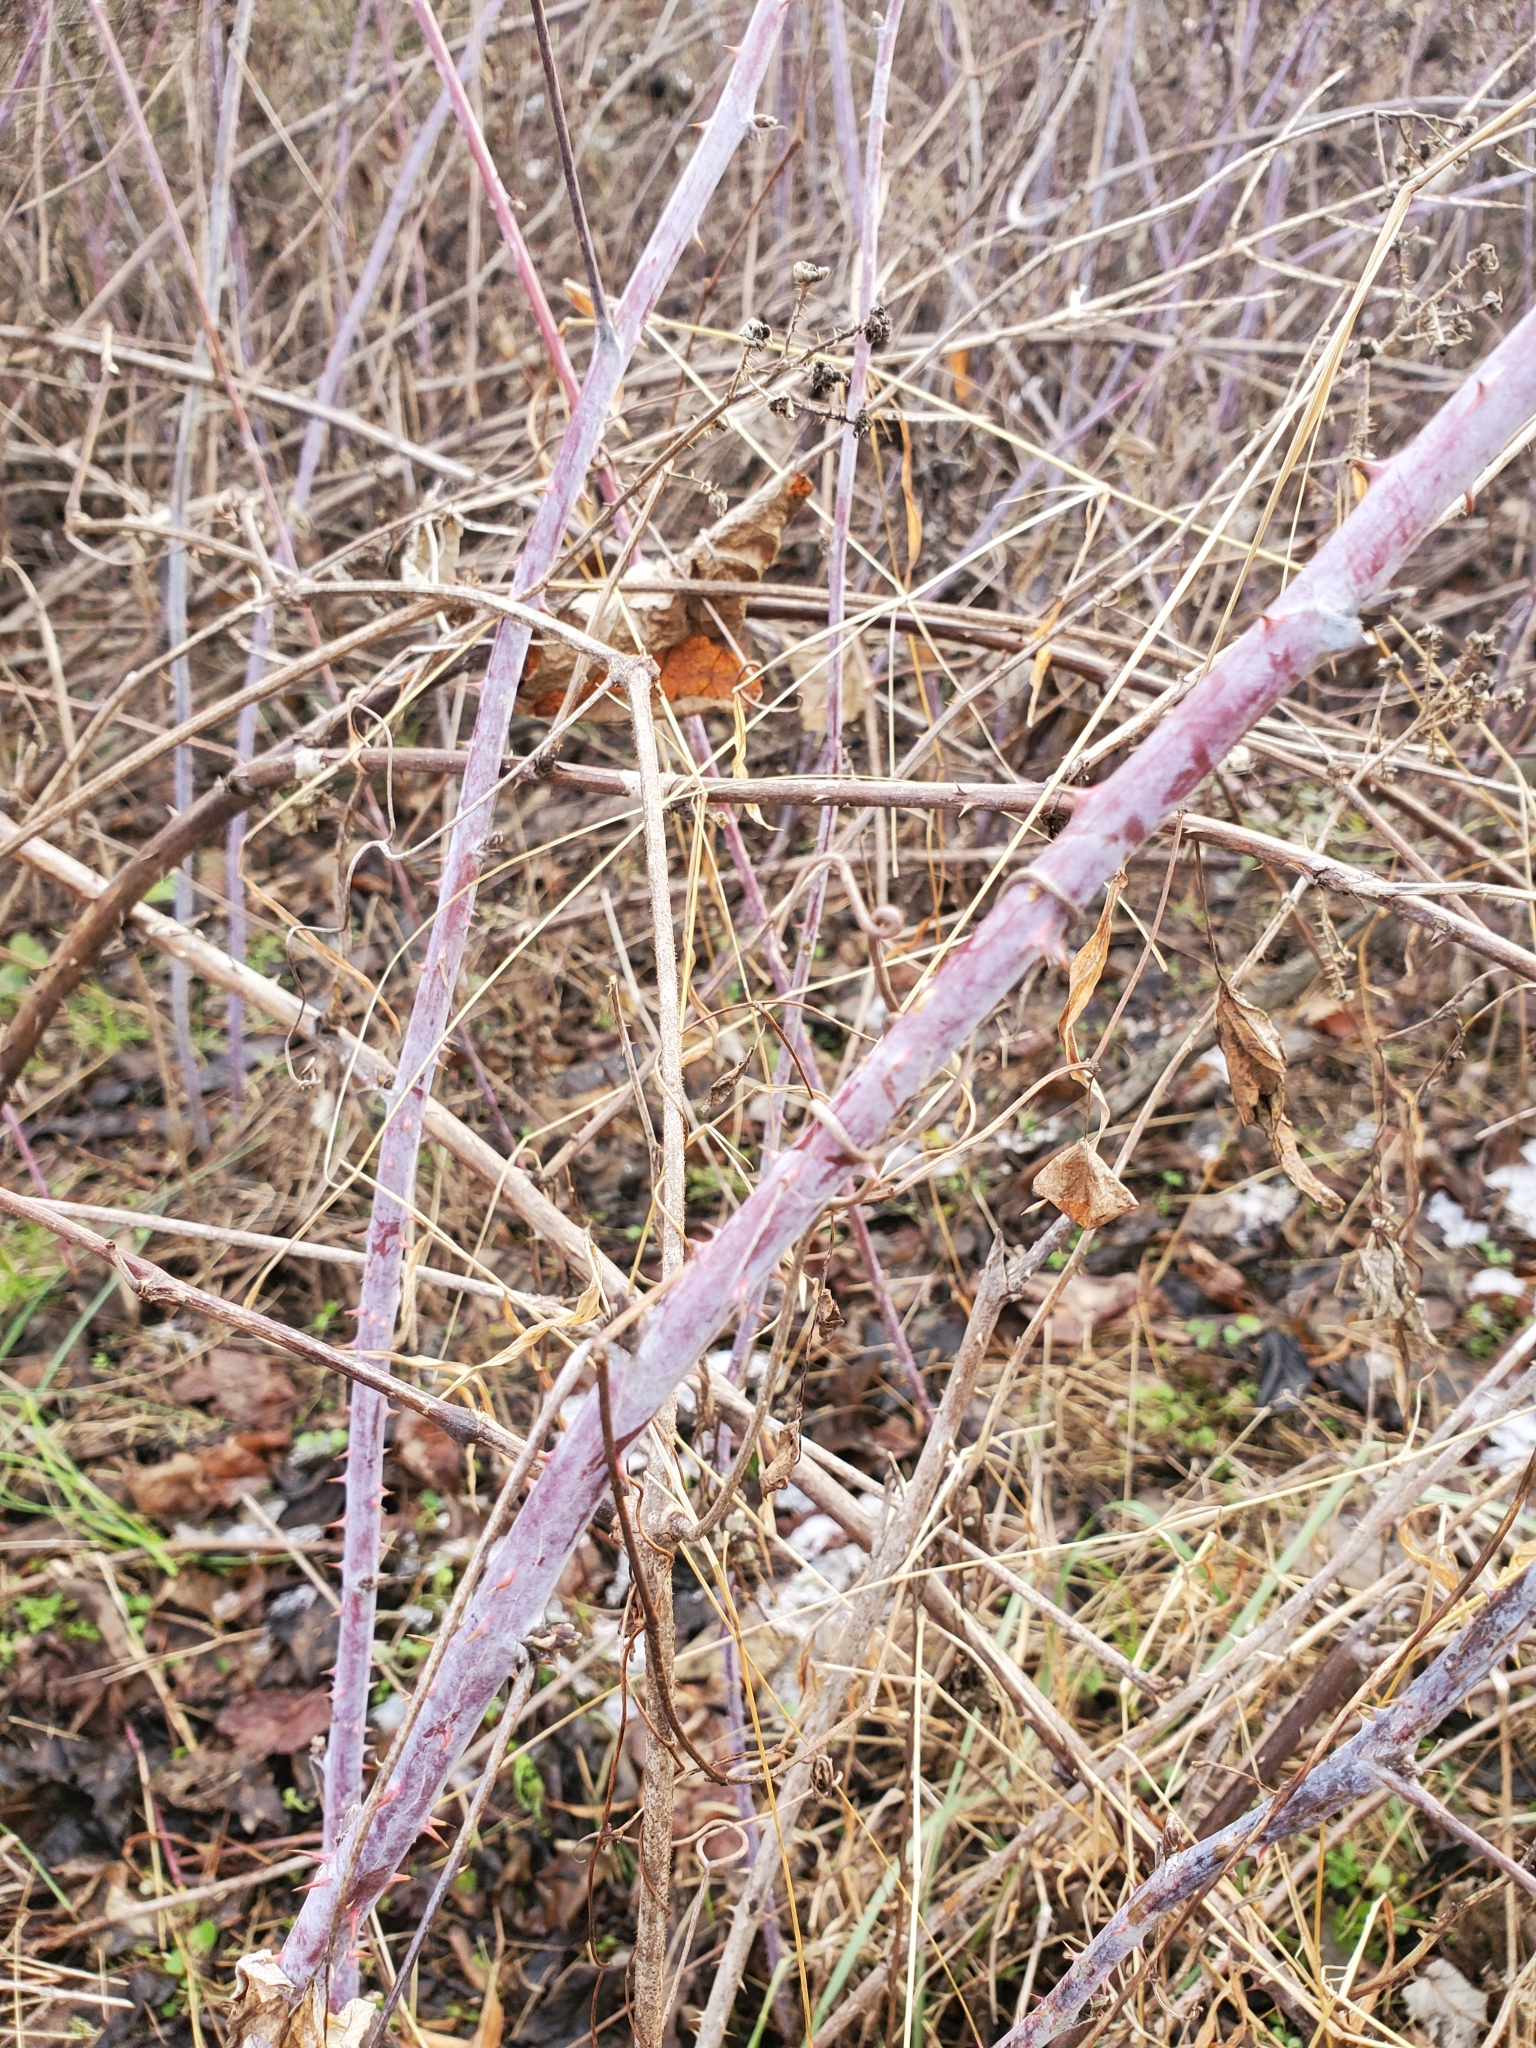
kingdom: Plantae
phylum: Tracheophyta
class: Magnoliopsida
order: Rosales
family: Rosaceae
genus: Rubus
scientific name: Rubus occidentalis
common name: Black raspberry
